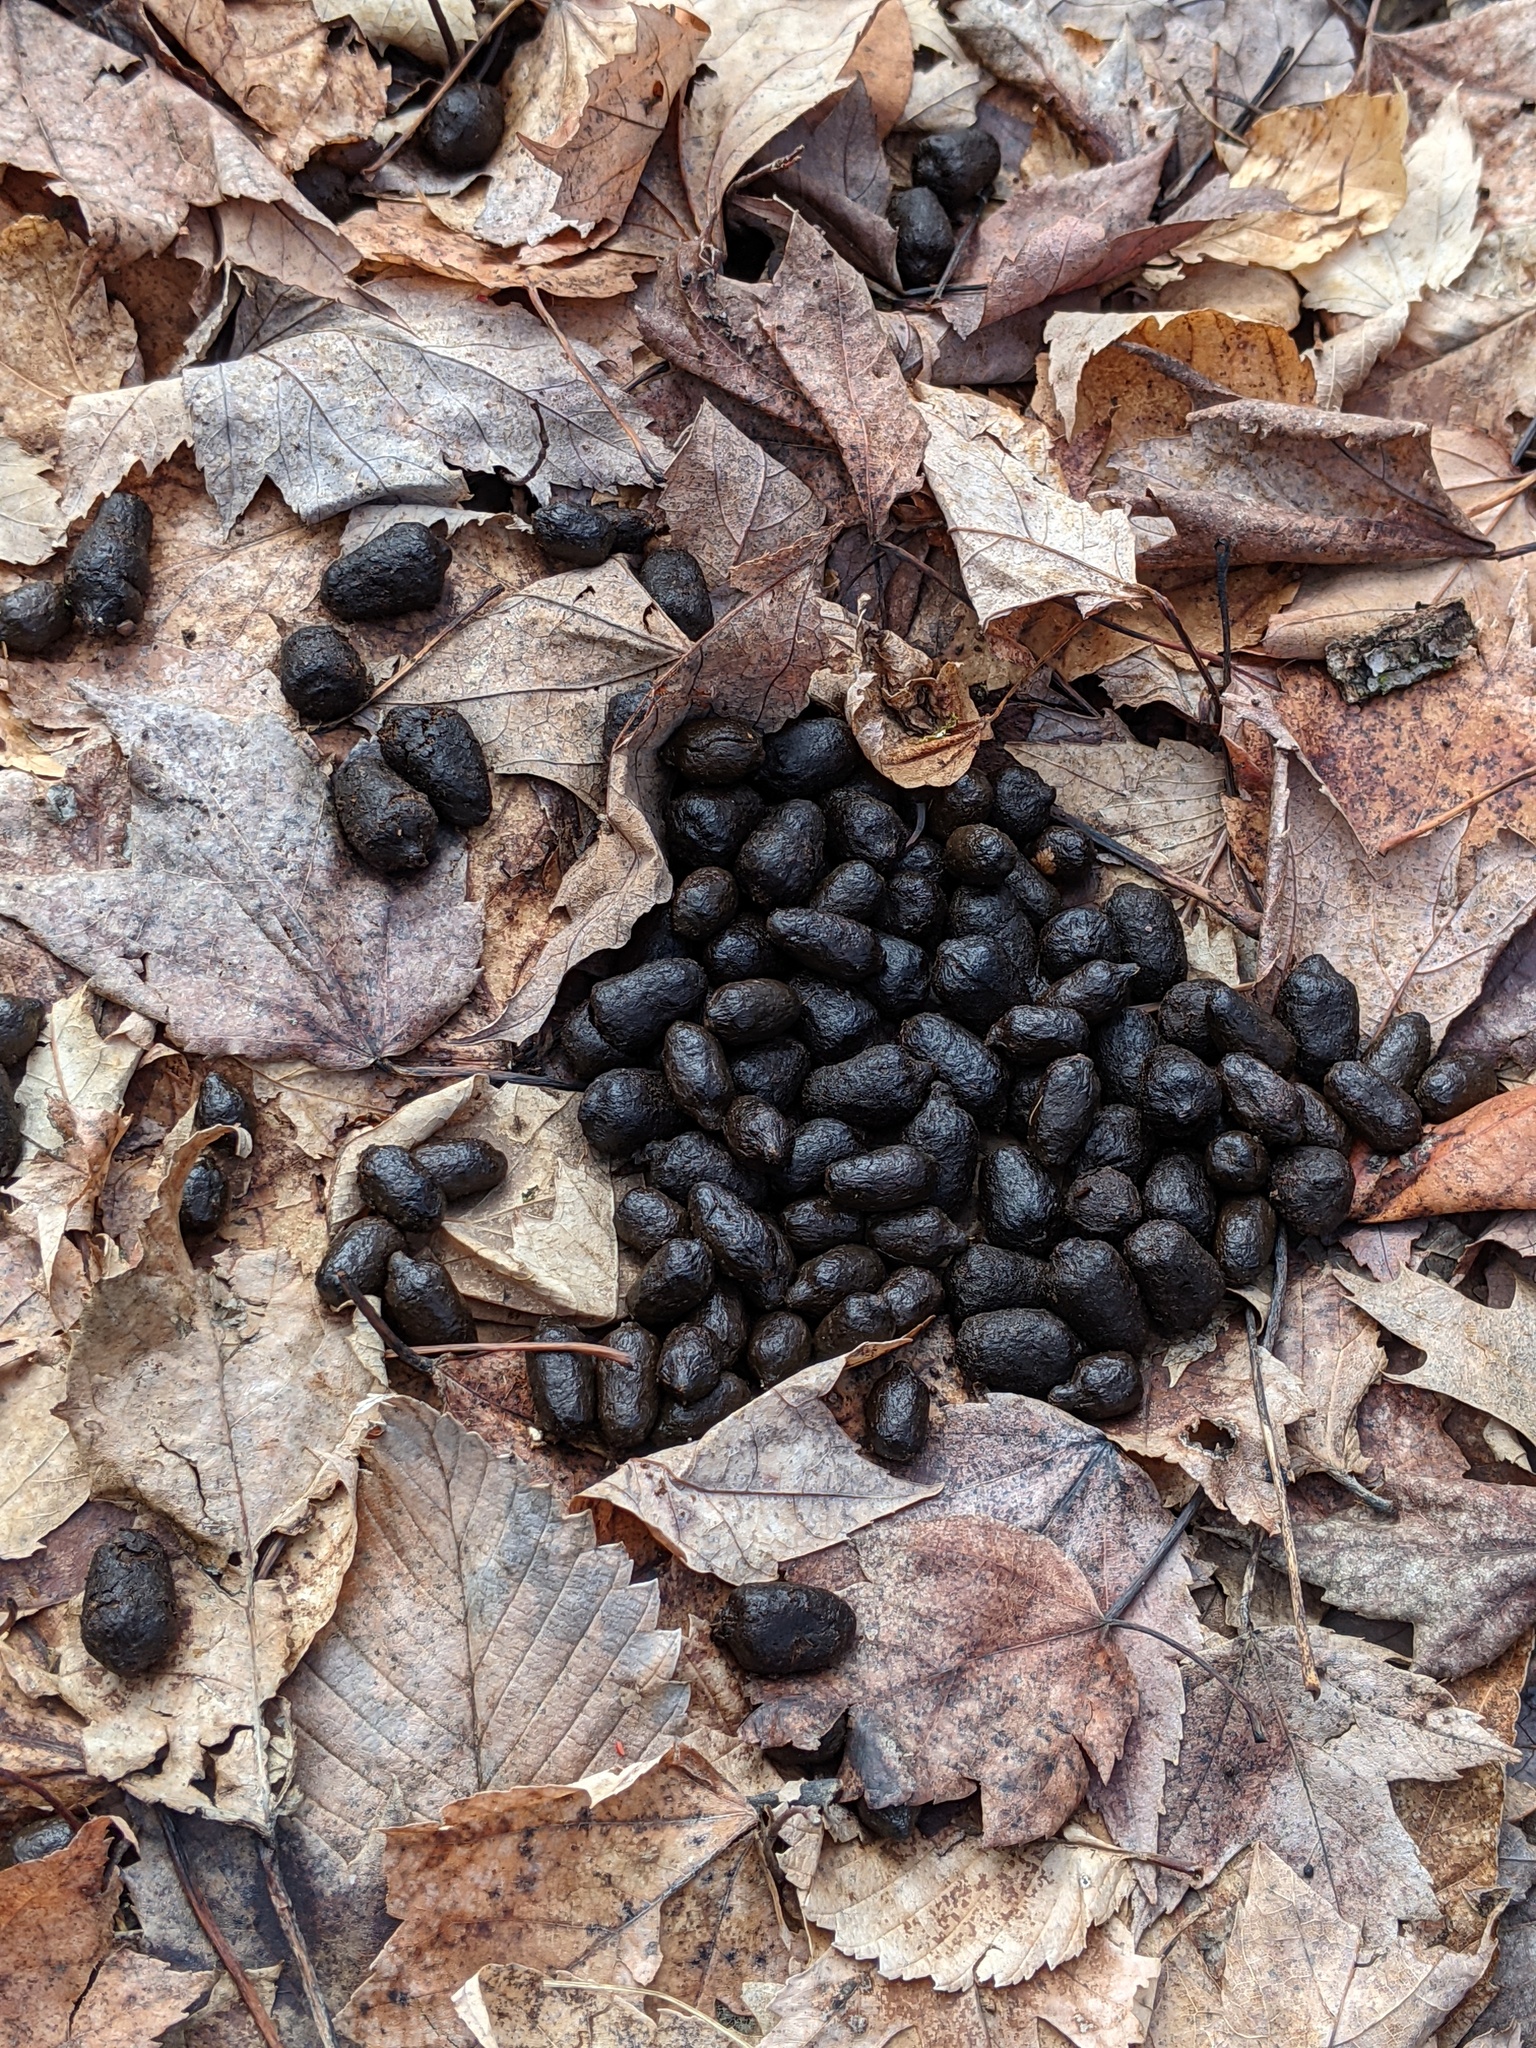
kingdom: Animalia
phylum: Chordata
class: Mammalia
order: Artiodactyla
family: Cervidae
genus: Odocoileus
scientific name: Odocoileus virginianus
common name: White-tailed deer
